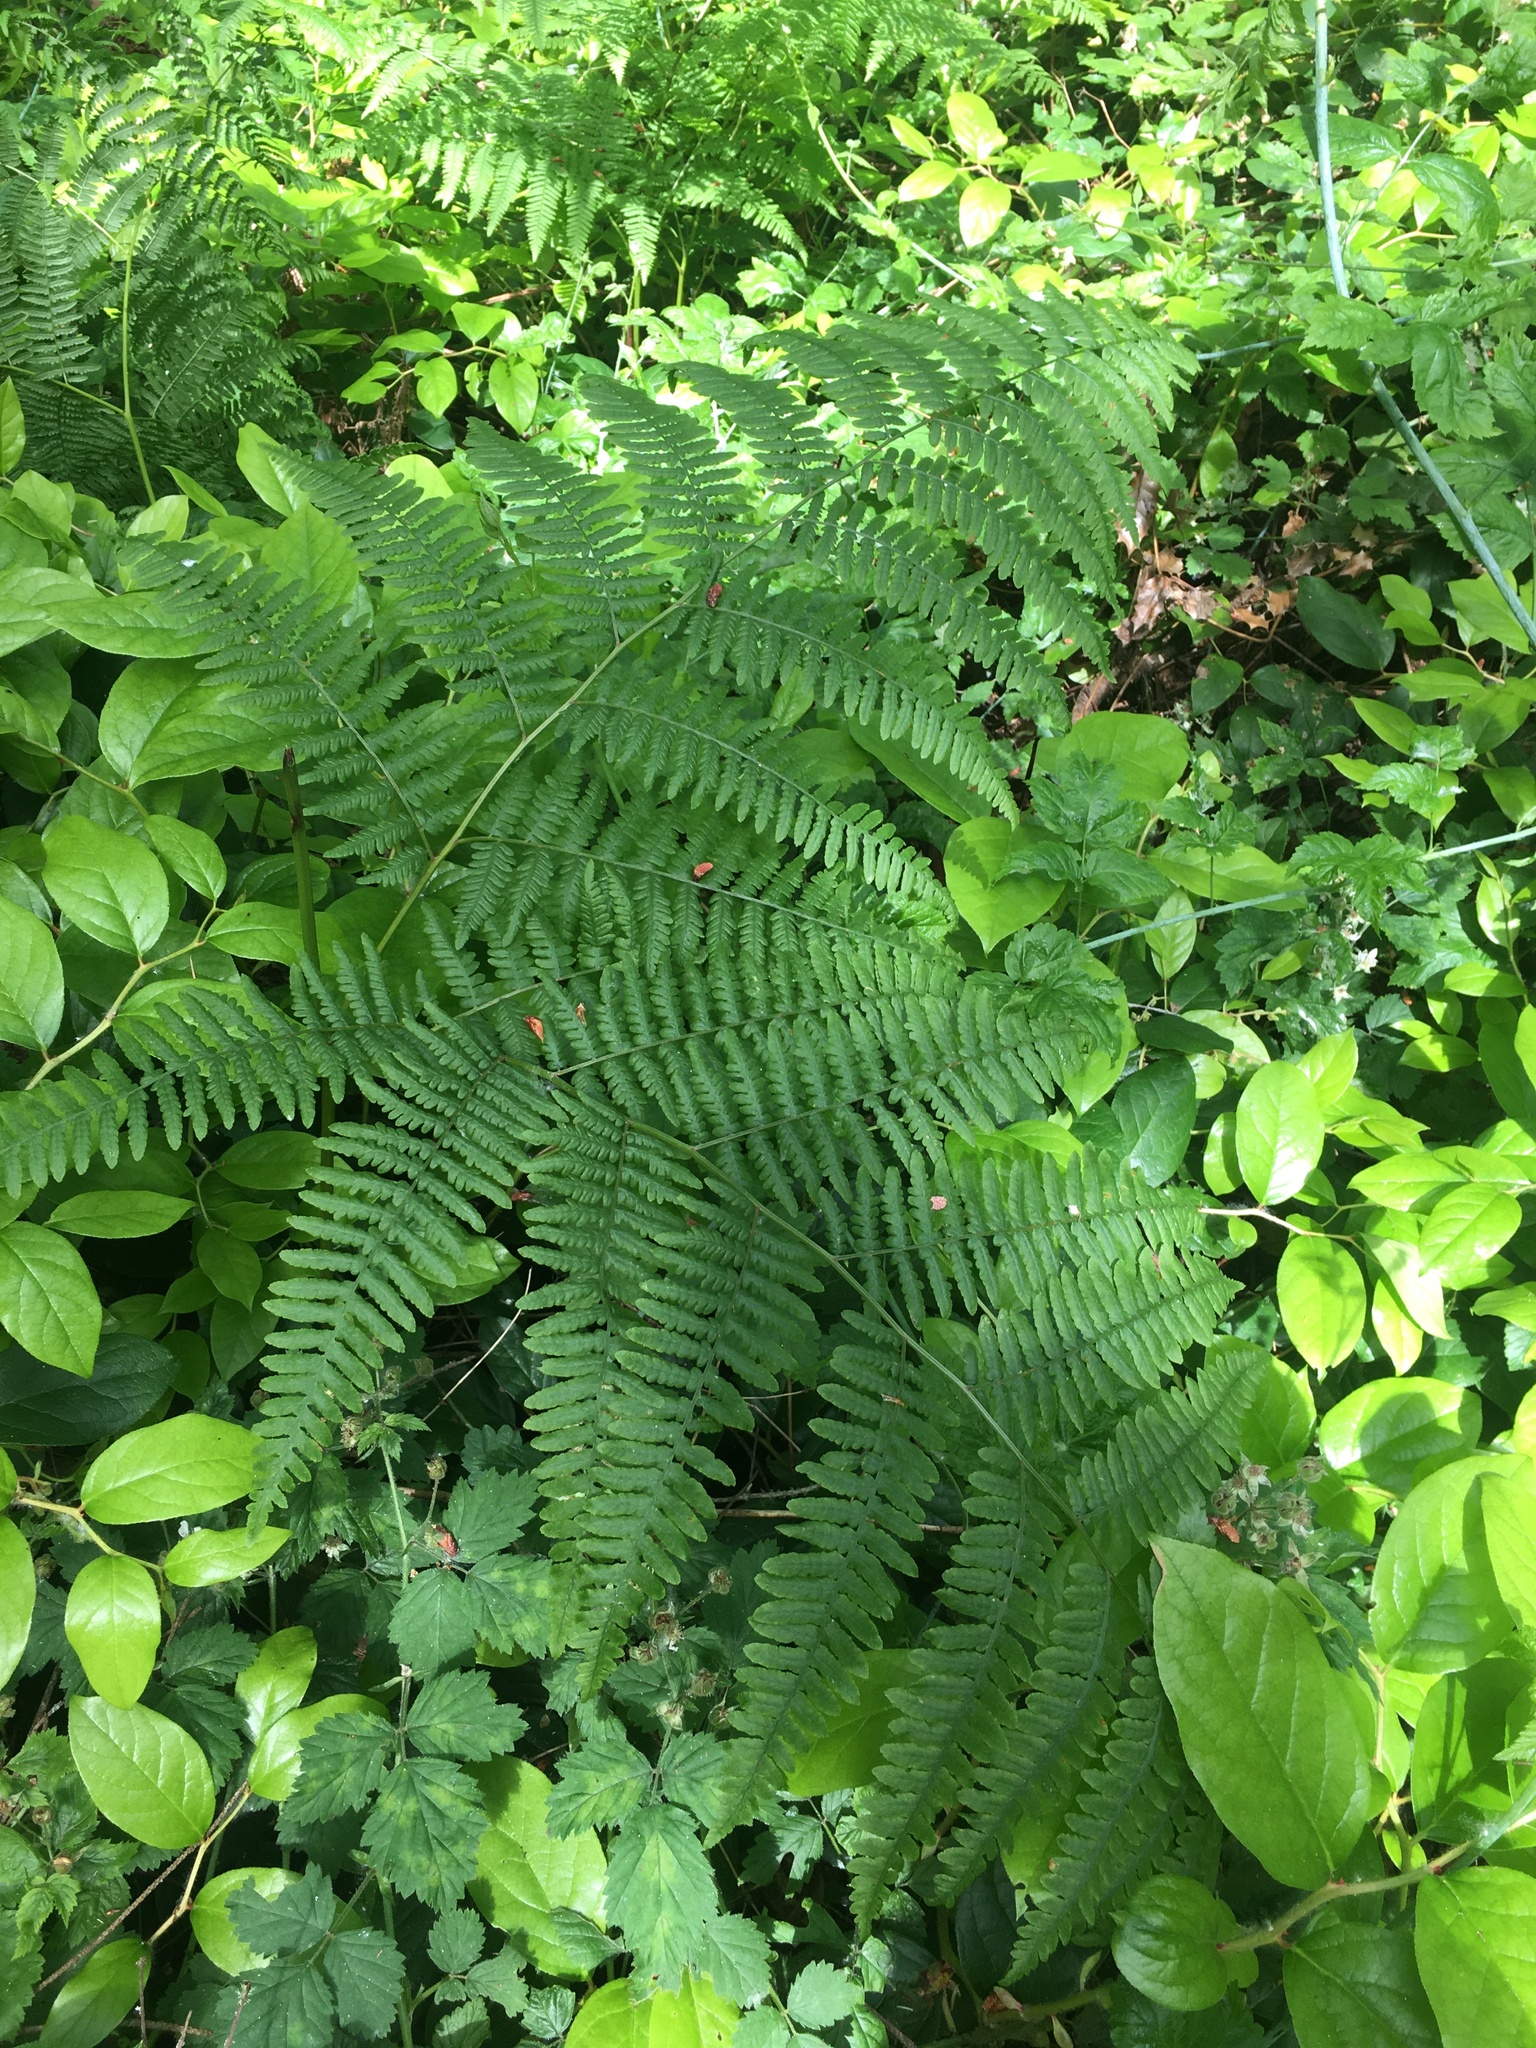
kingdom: Plantae
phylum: Tracheophyta
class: Polypodiopsida
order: Polypodiales
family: Dennstaedtiaceae
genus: Pteridium
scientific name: Pteridium aquilinum
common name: Bracken
